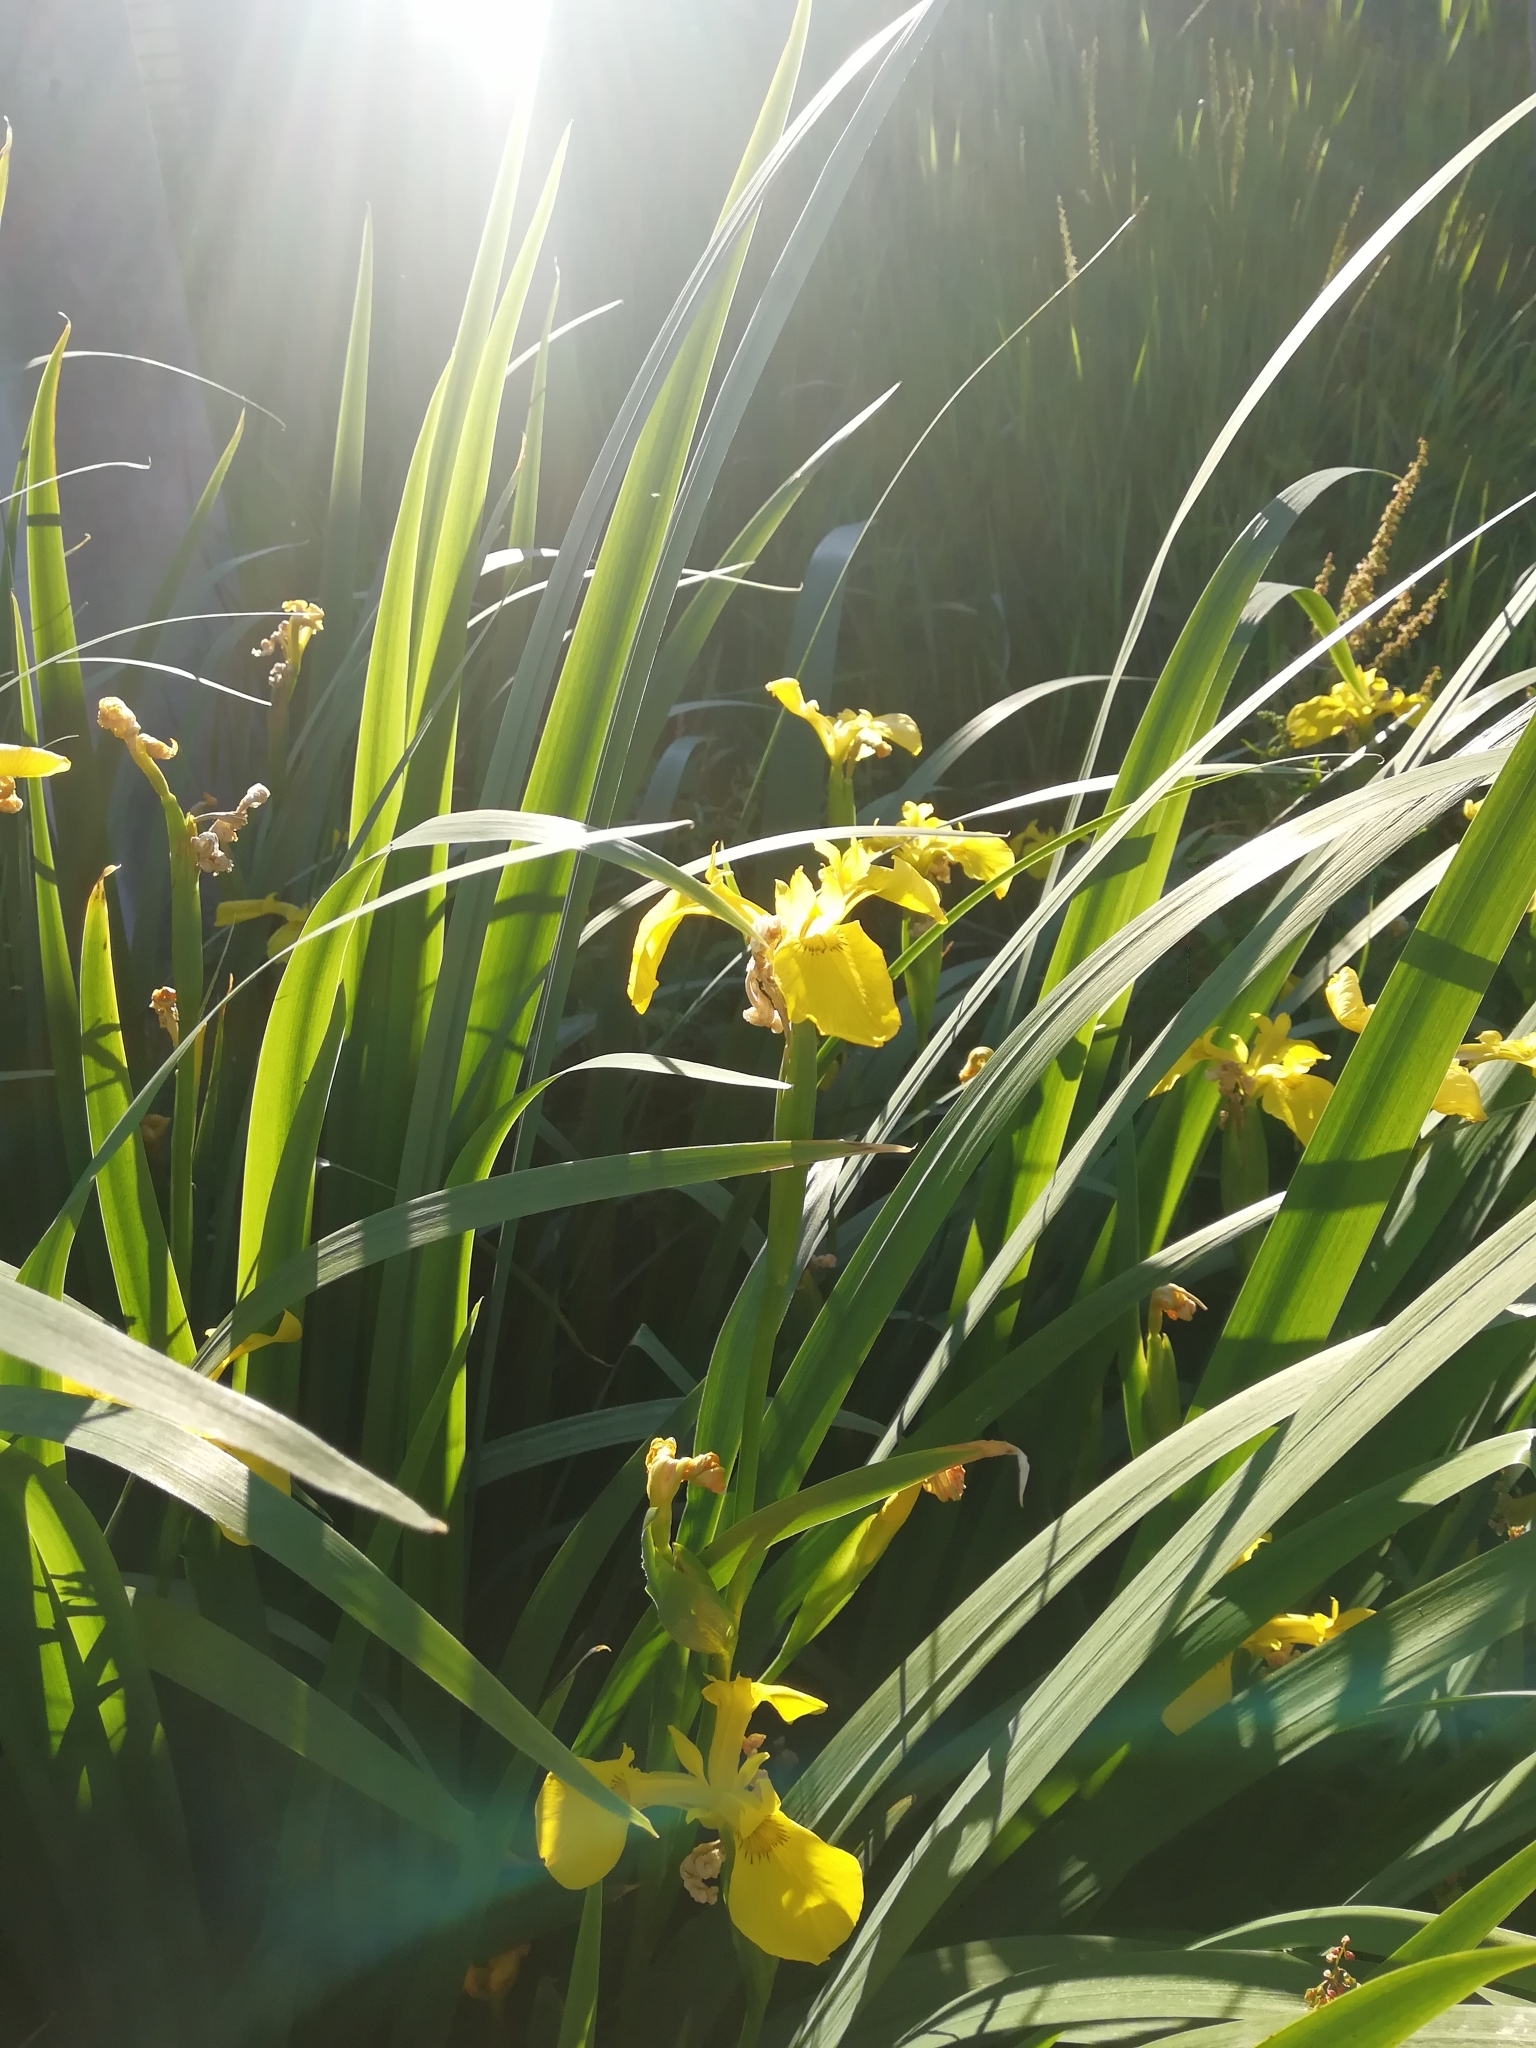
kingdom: Plantae
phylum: Tracheophyta
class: Liliopsida
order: Asparagales
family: Iridaceae
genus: Iris
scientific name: Iris pseudacorus
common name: Yellow flag
